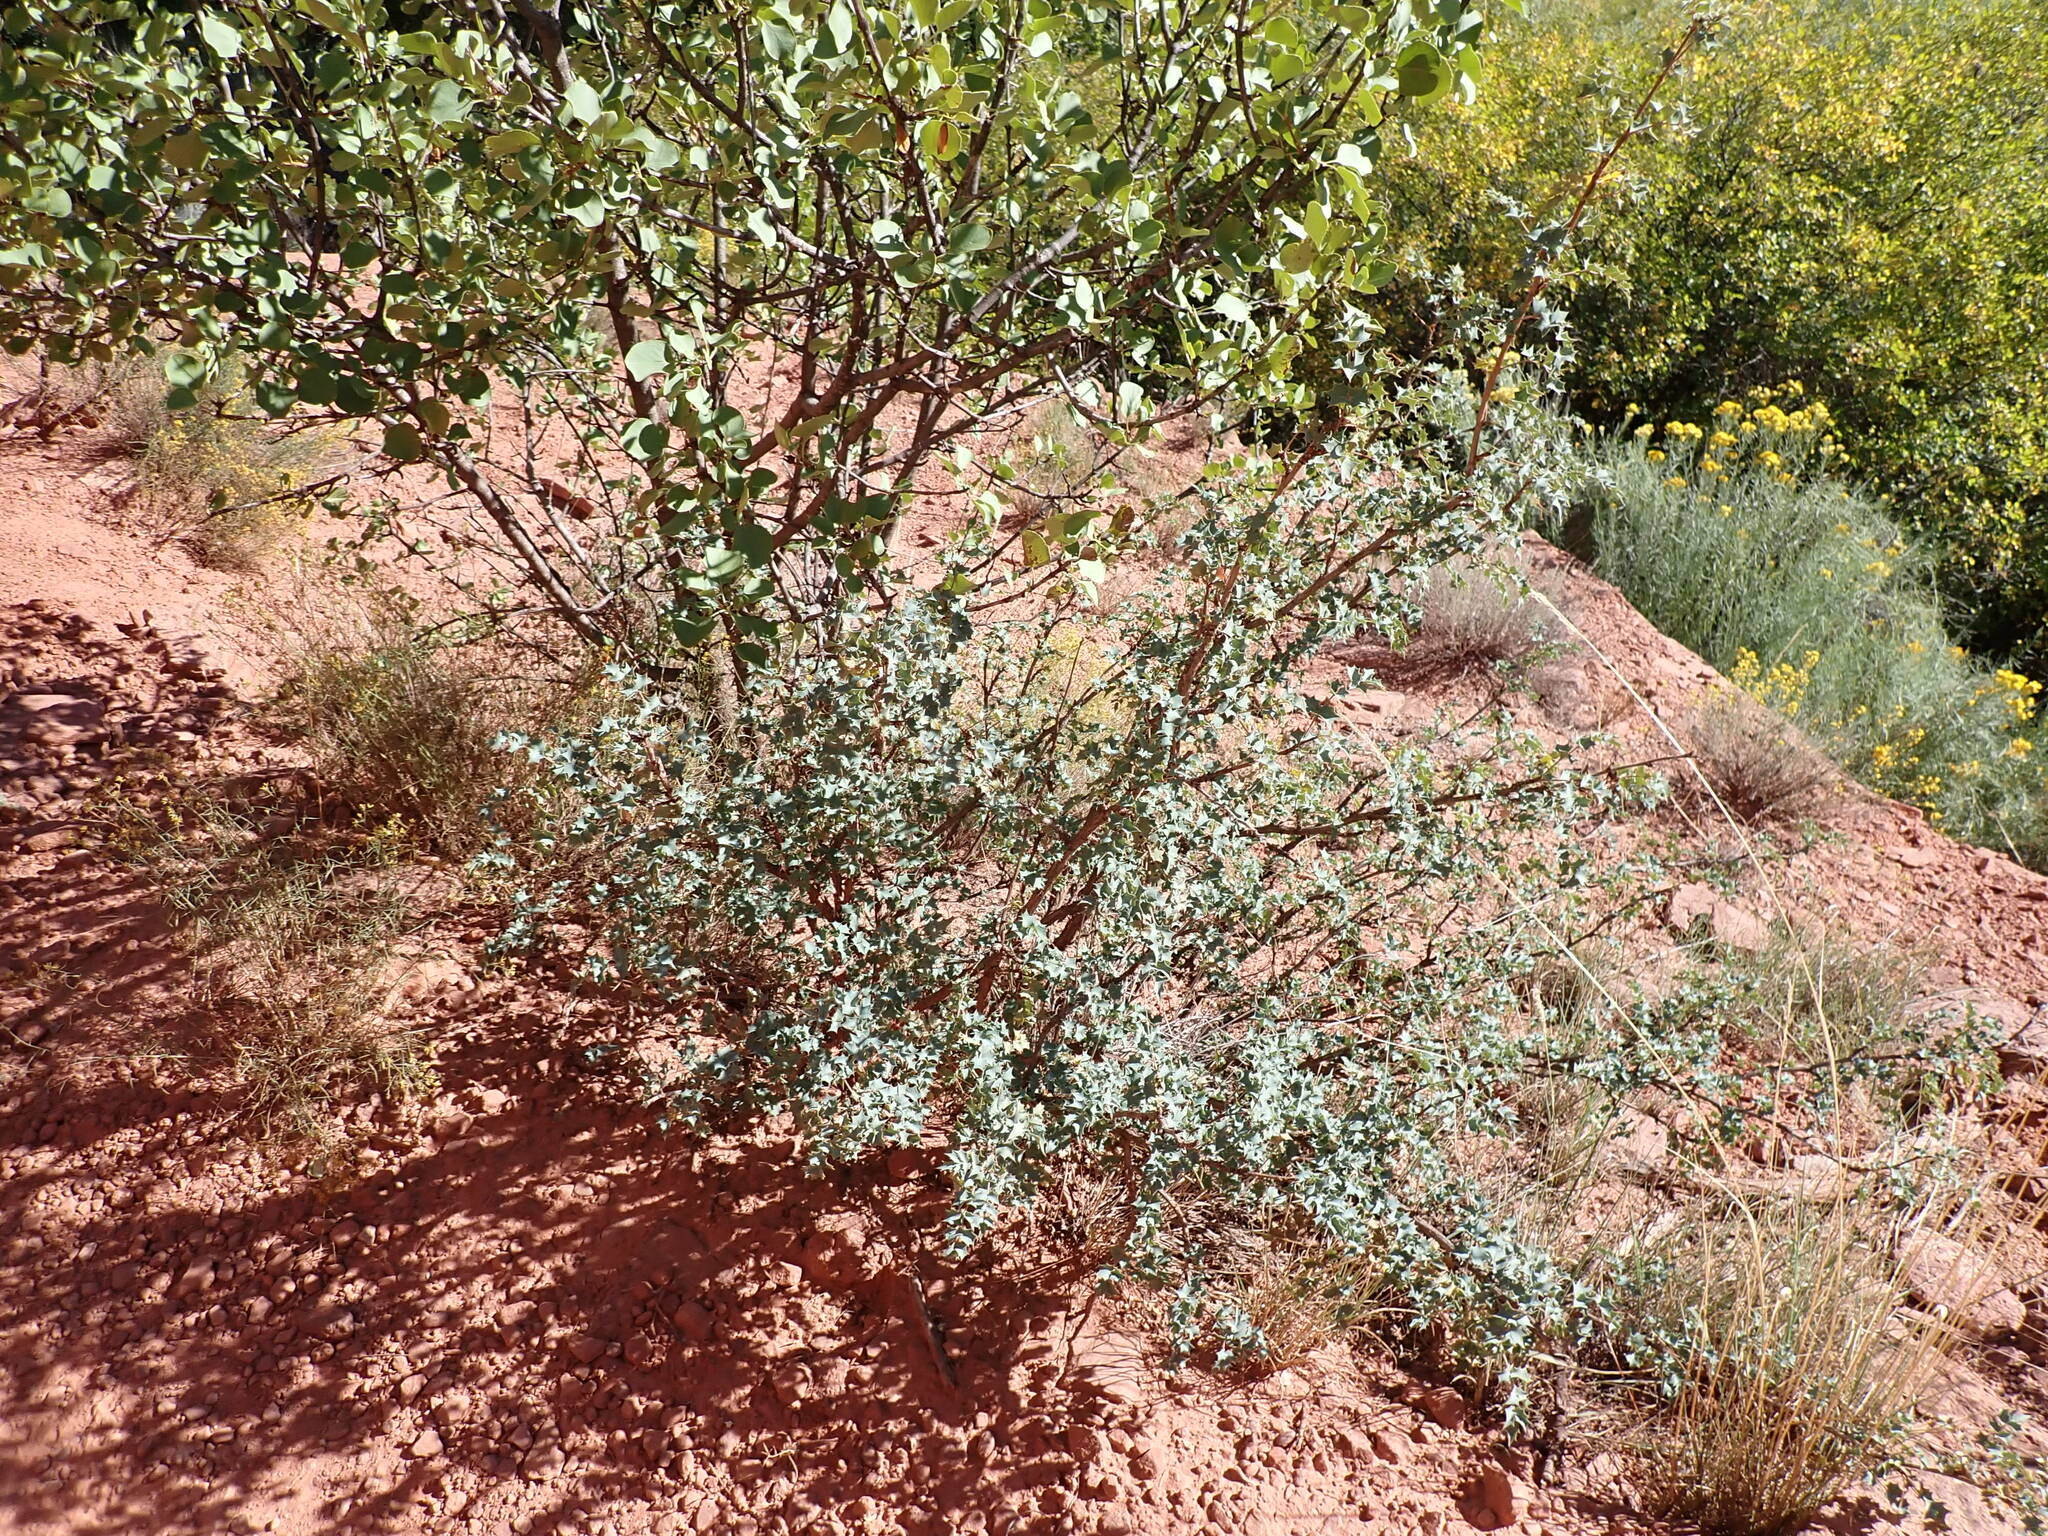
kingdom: Plantae
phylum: Tracheophyta
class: Magnoliopsida
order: Ranunculales
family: Berberidaceae
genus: Alloberberis
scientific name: Alloberberis fremontii
